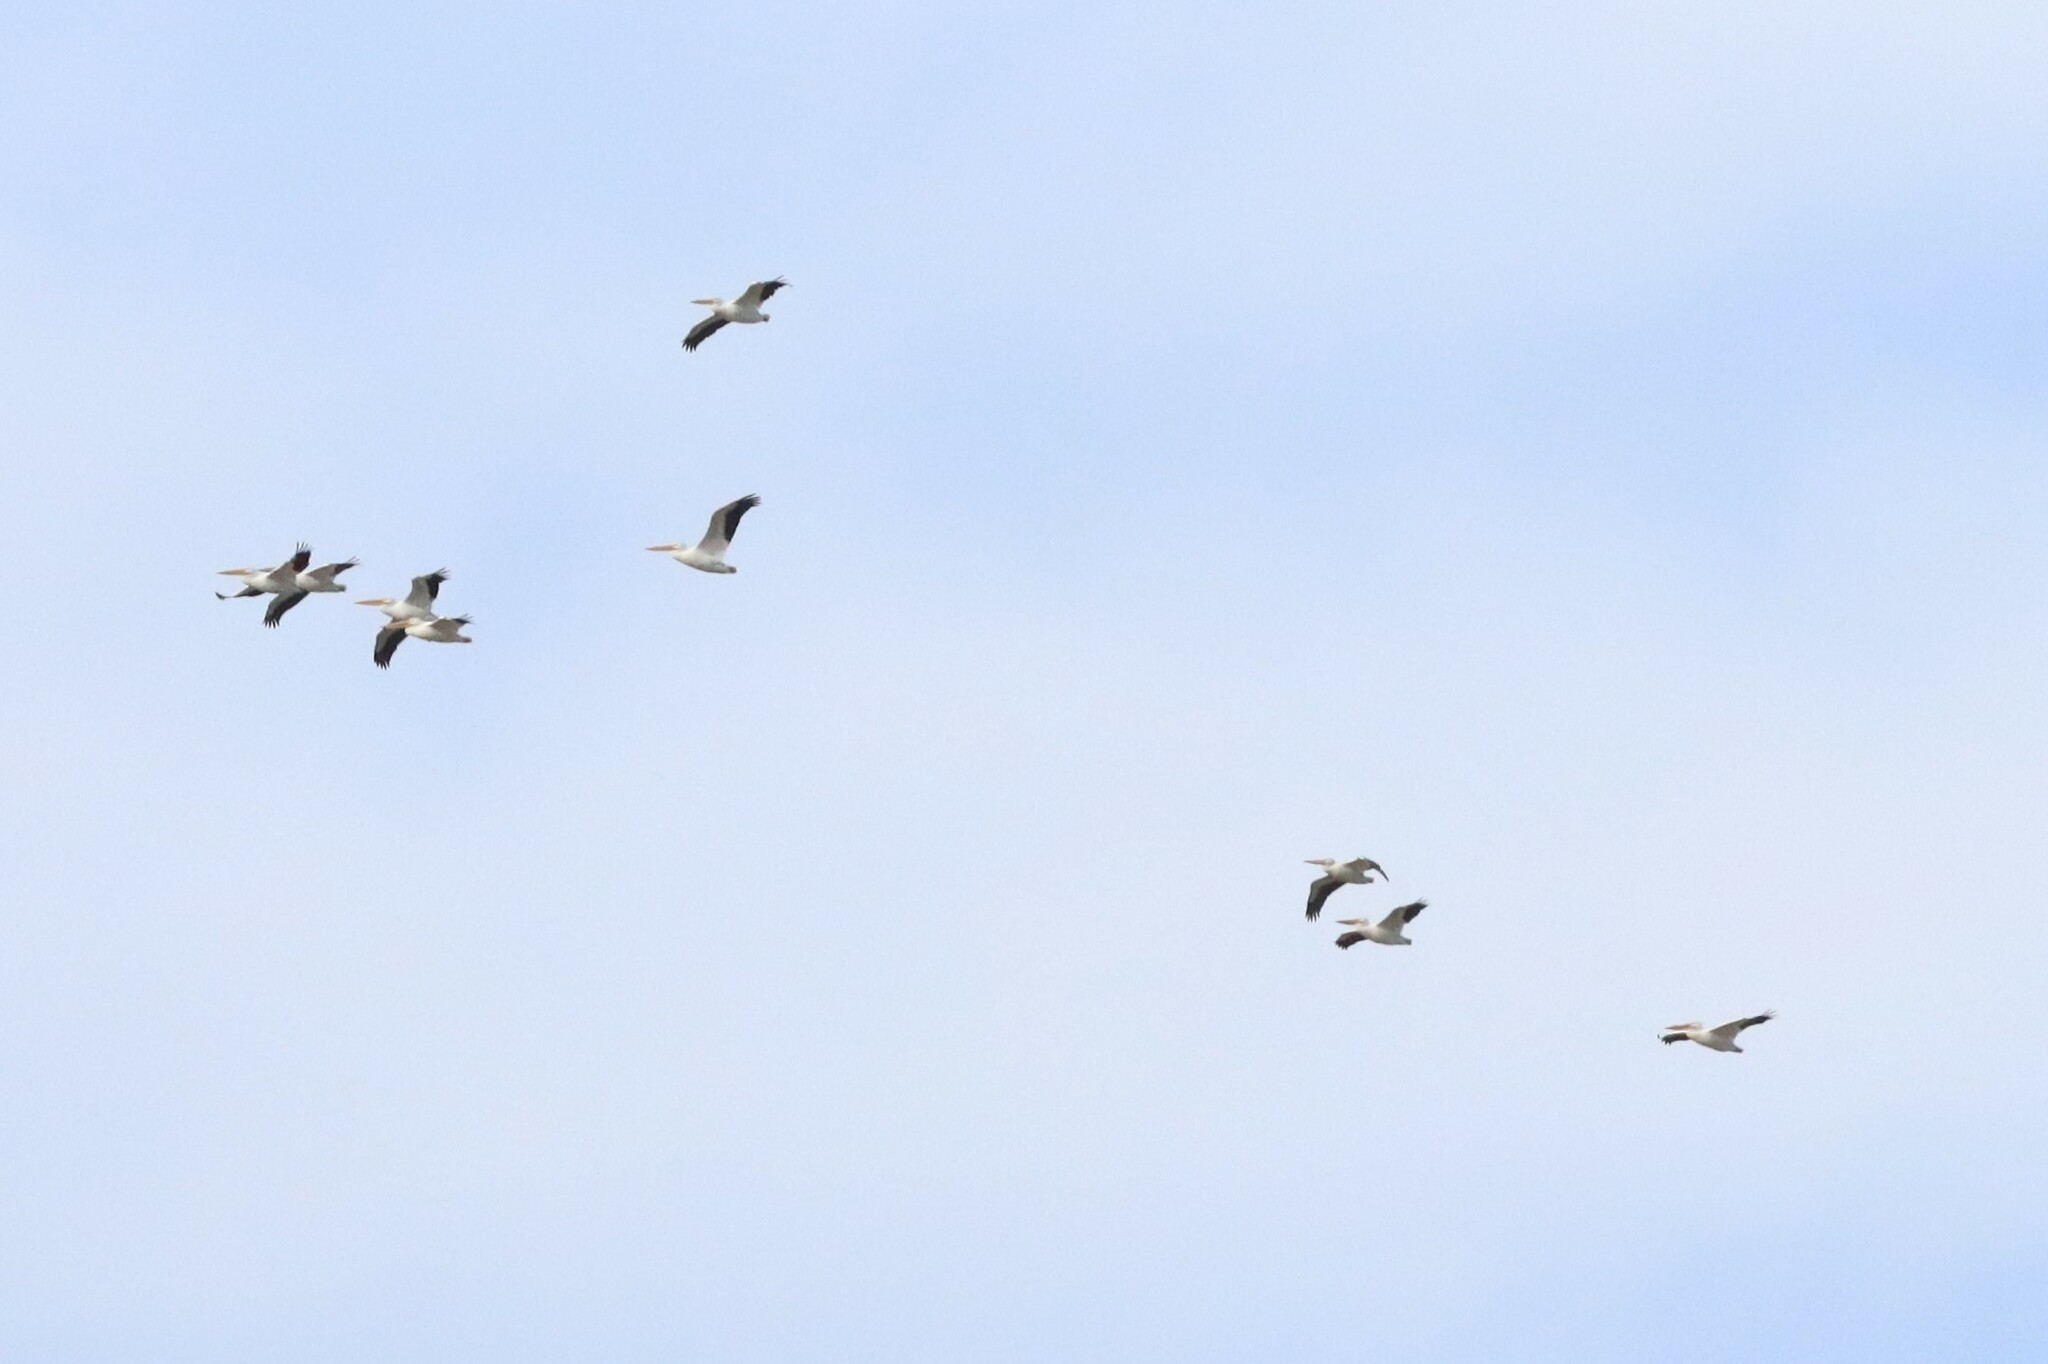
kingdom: Animalia
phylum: Chordata
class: Aves
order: Pelecaniformes
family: Pelecanidae
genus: Pelecanus
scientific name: Pelecanus erythrorhynchos
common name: American white pelican
